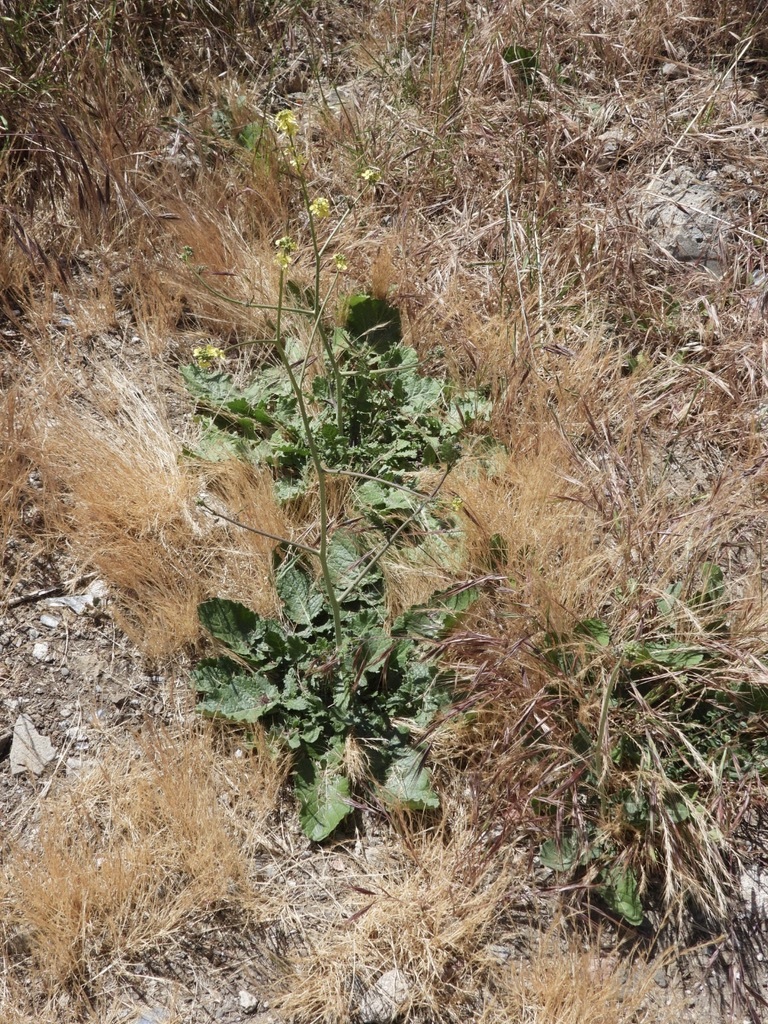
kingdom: Plantae
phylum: Tracheophyta
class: Magnoliopsida
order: Brassicales
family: Brassicaceae
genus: Hirschfeldia
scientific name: Hirschfeldia incana
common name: Hoary mustard
